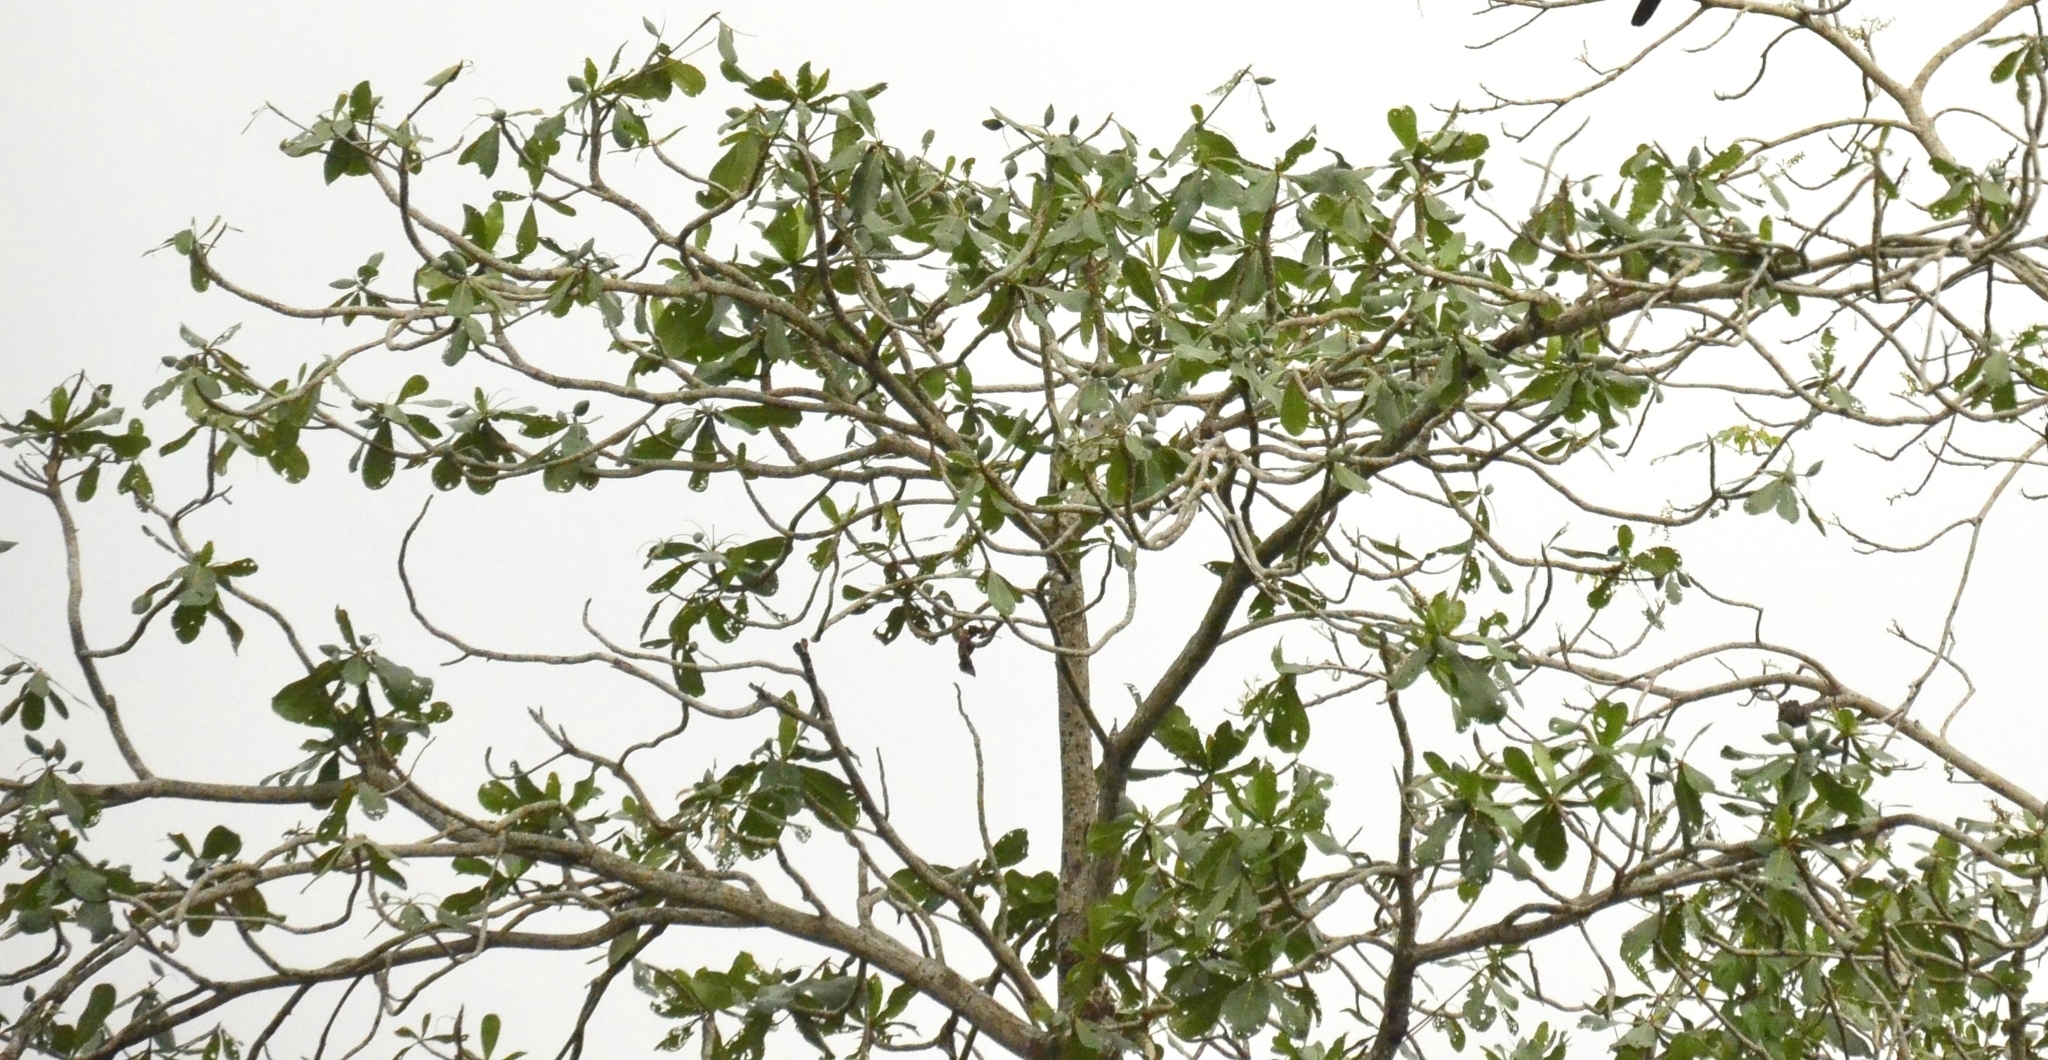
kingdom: Plantae
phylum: Tracheophyta
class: Magnoliopsida
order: Myrtales
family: Combretaceae
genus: Terminalia
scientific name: Terminalia catappa
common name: Tropical almond
